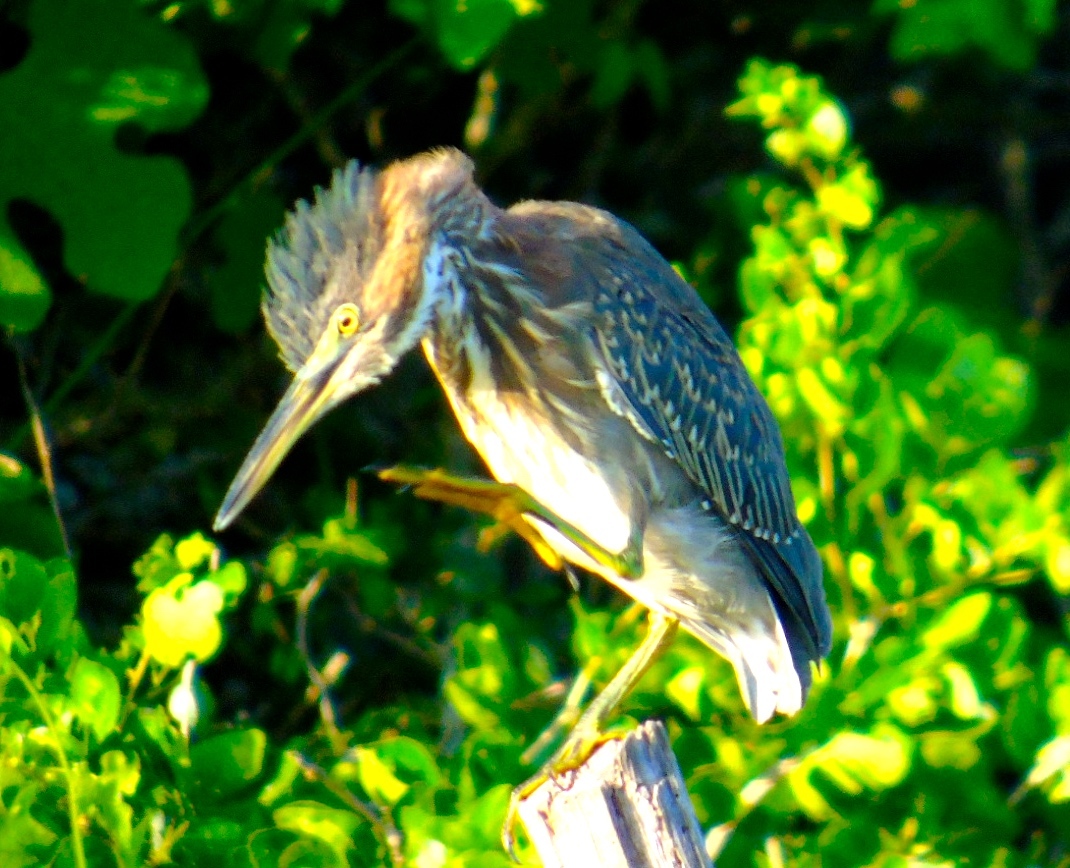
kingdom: Animalia
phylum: Chordata
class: Aves
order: Pelecaniformes
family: Ardeidae
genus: Butorides
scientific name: Butorides virescens
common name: Green heron
